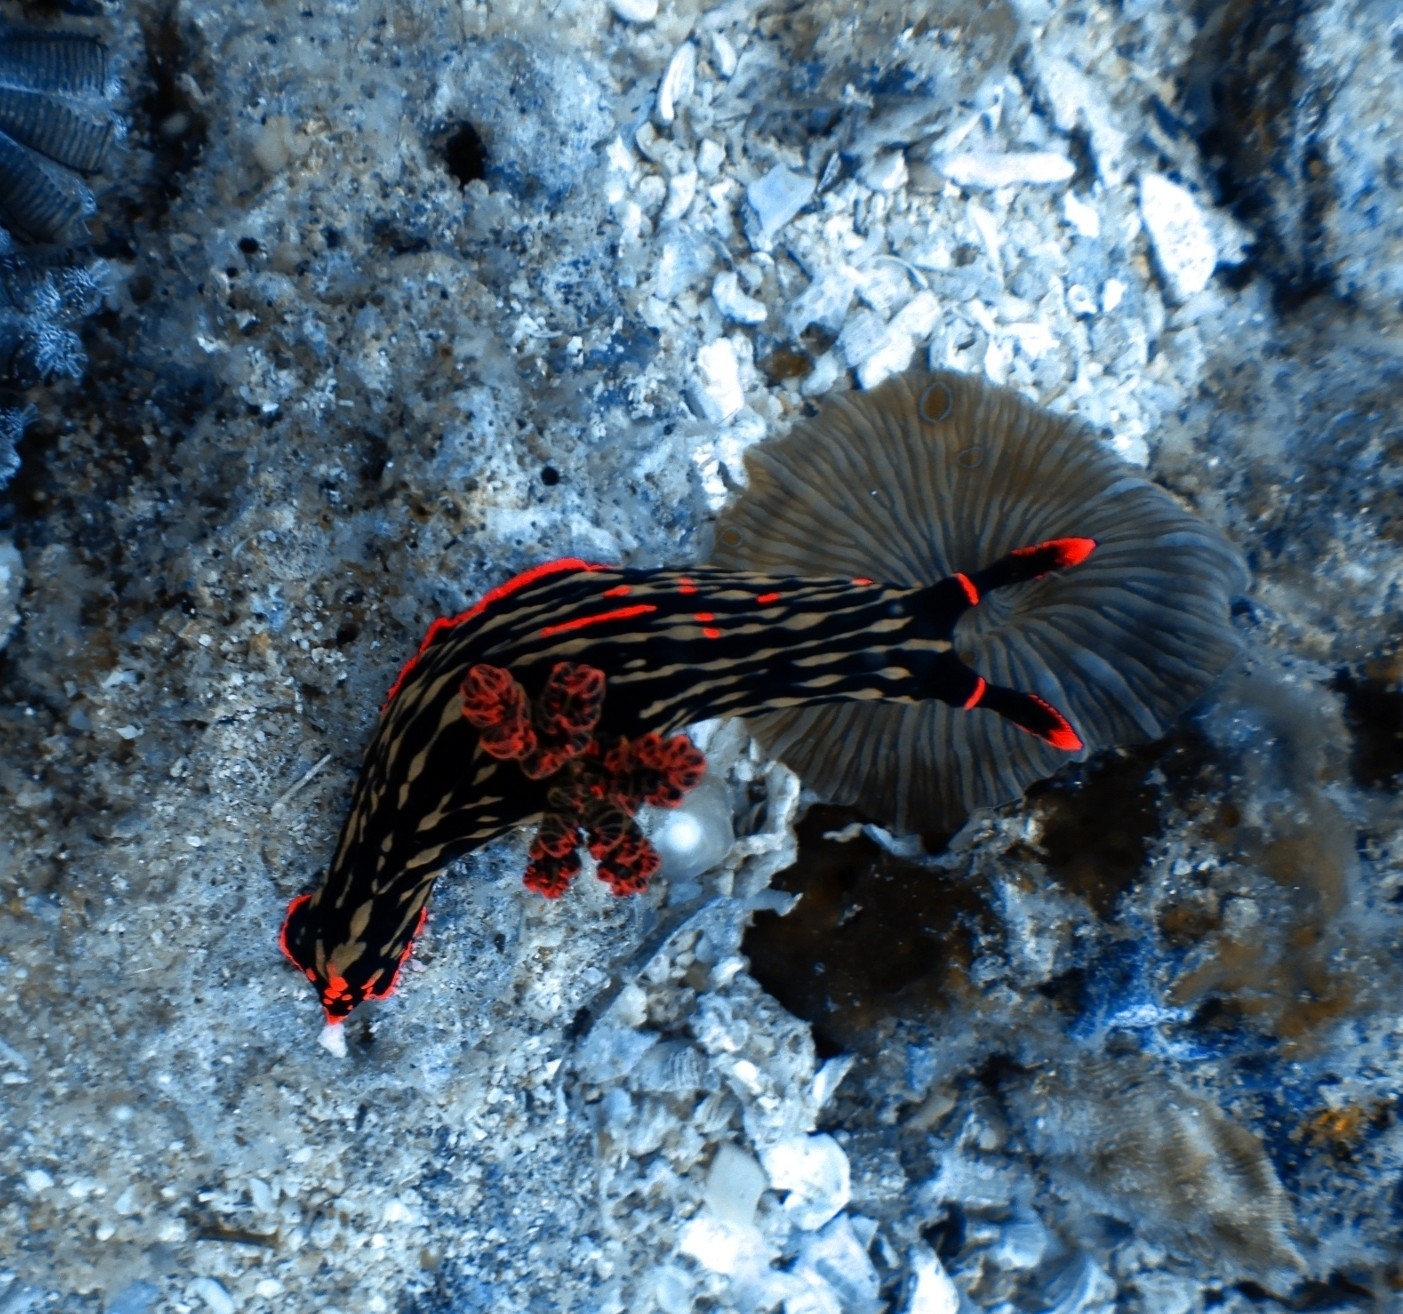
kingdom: Animalia
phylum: Mollusca
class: Gastropoda
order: Nudibranchia
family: Polyceridae
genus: Nembrotha
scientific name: Nembrotha kubaryana
